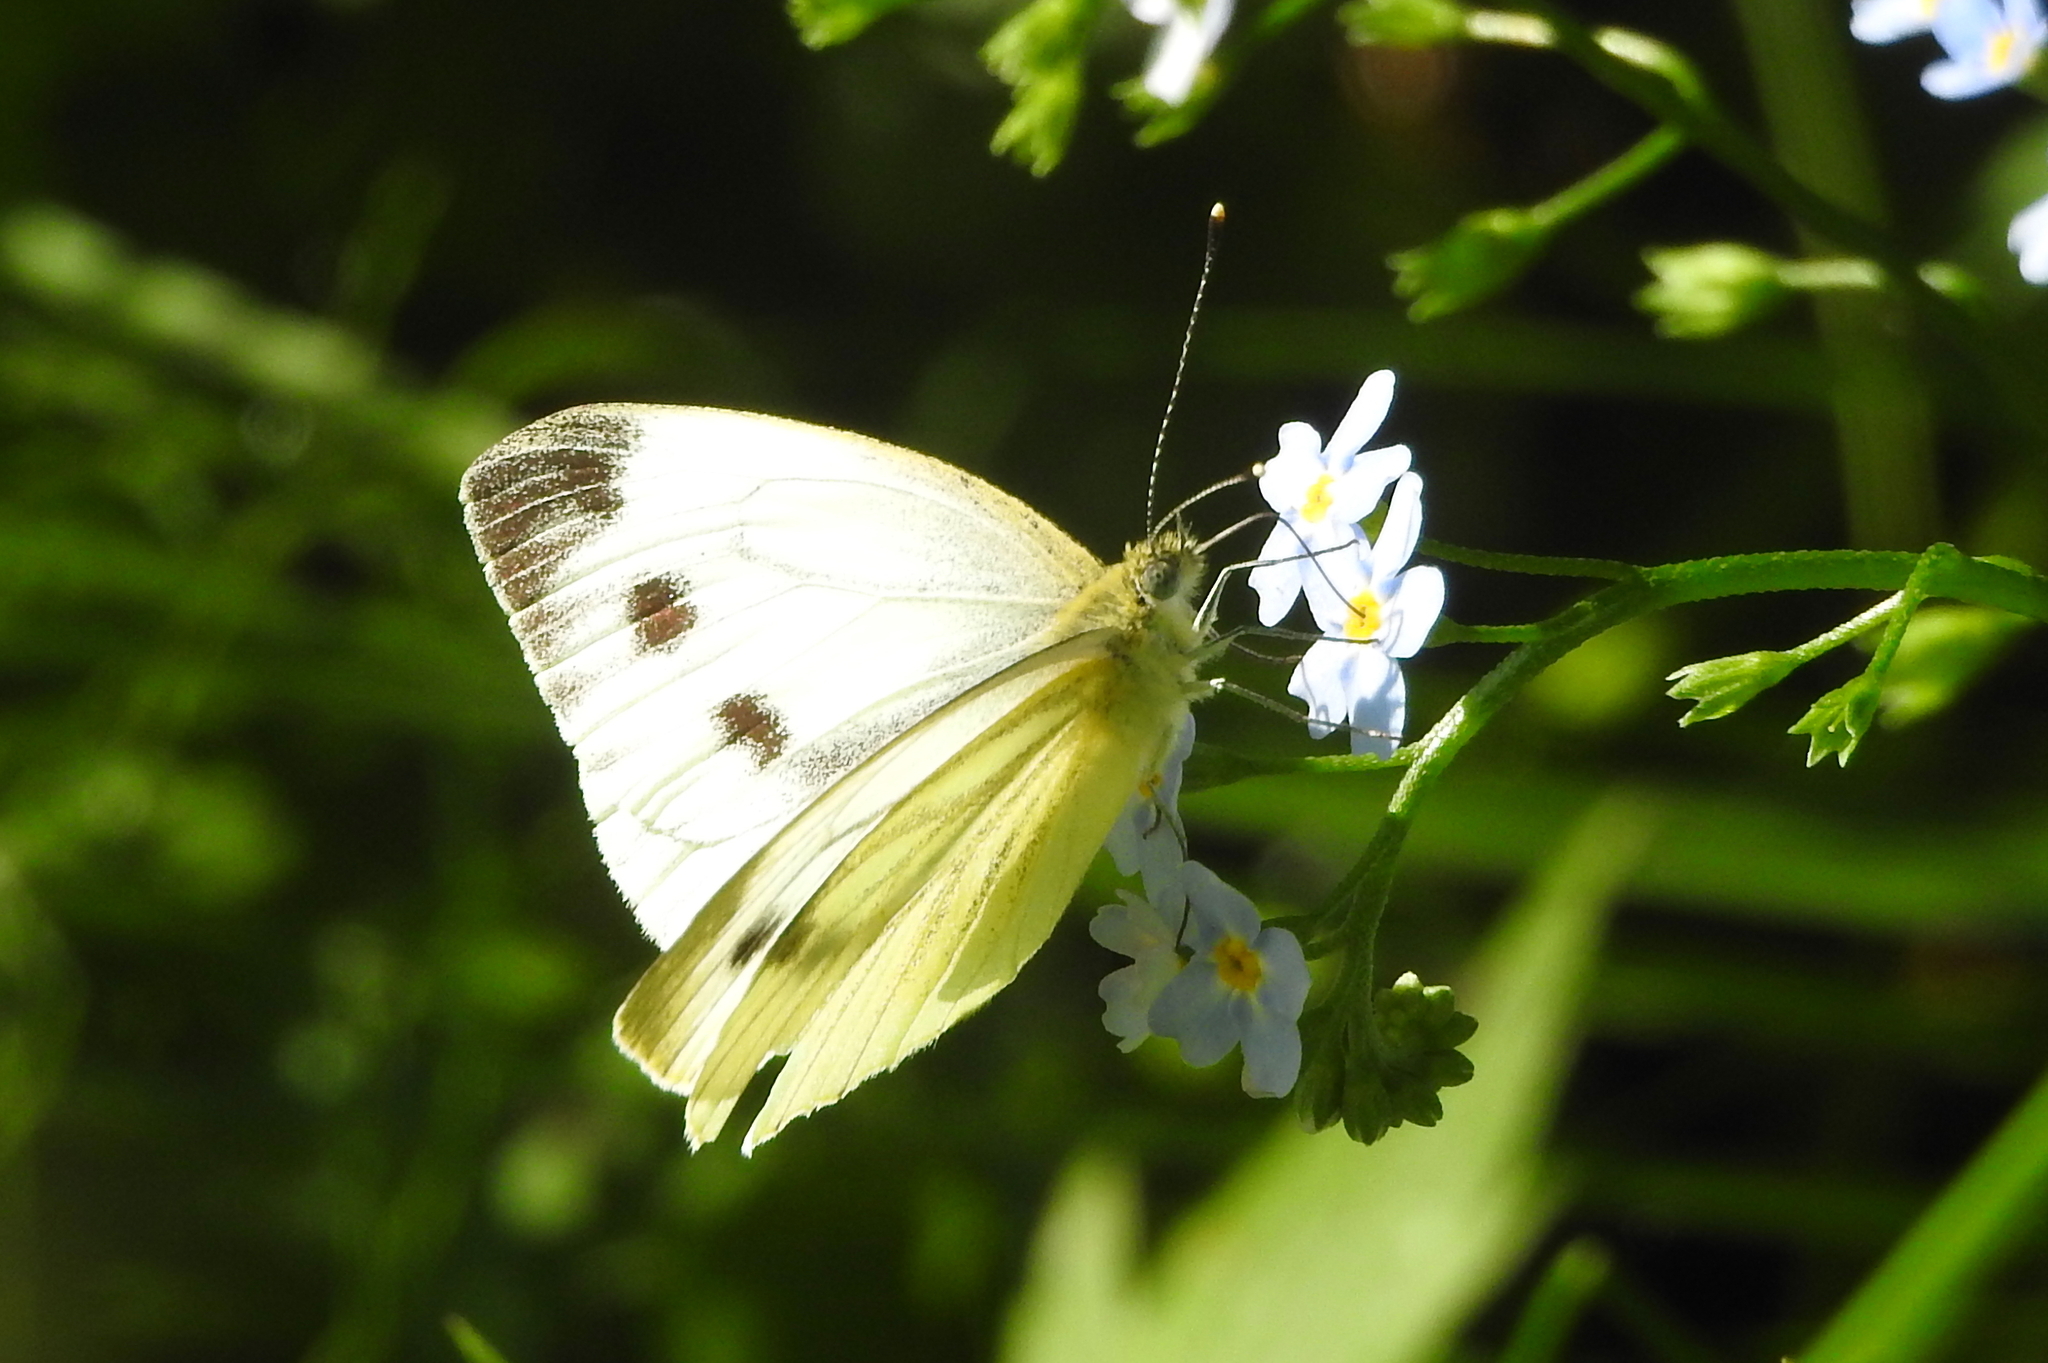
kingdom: Animalia
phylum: Arthropoda
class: Insecta
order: Lepidoptera
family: Pieridae
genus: Pieris
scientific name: Pieris napi
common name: Green-veined white
